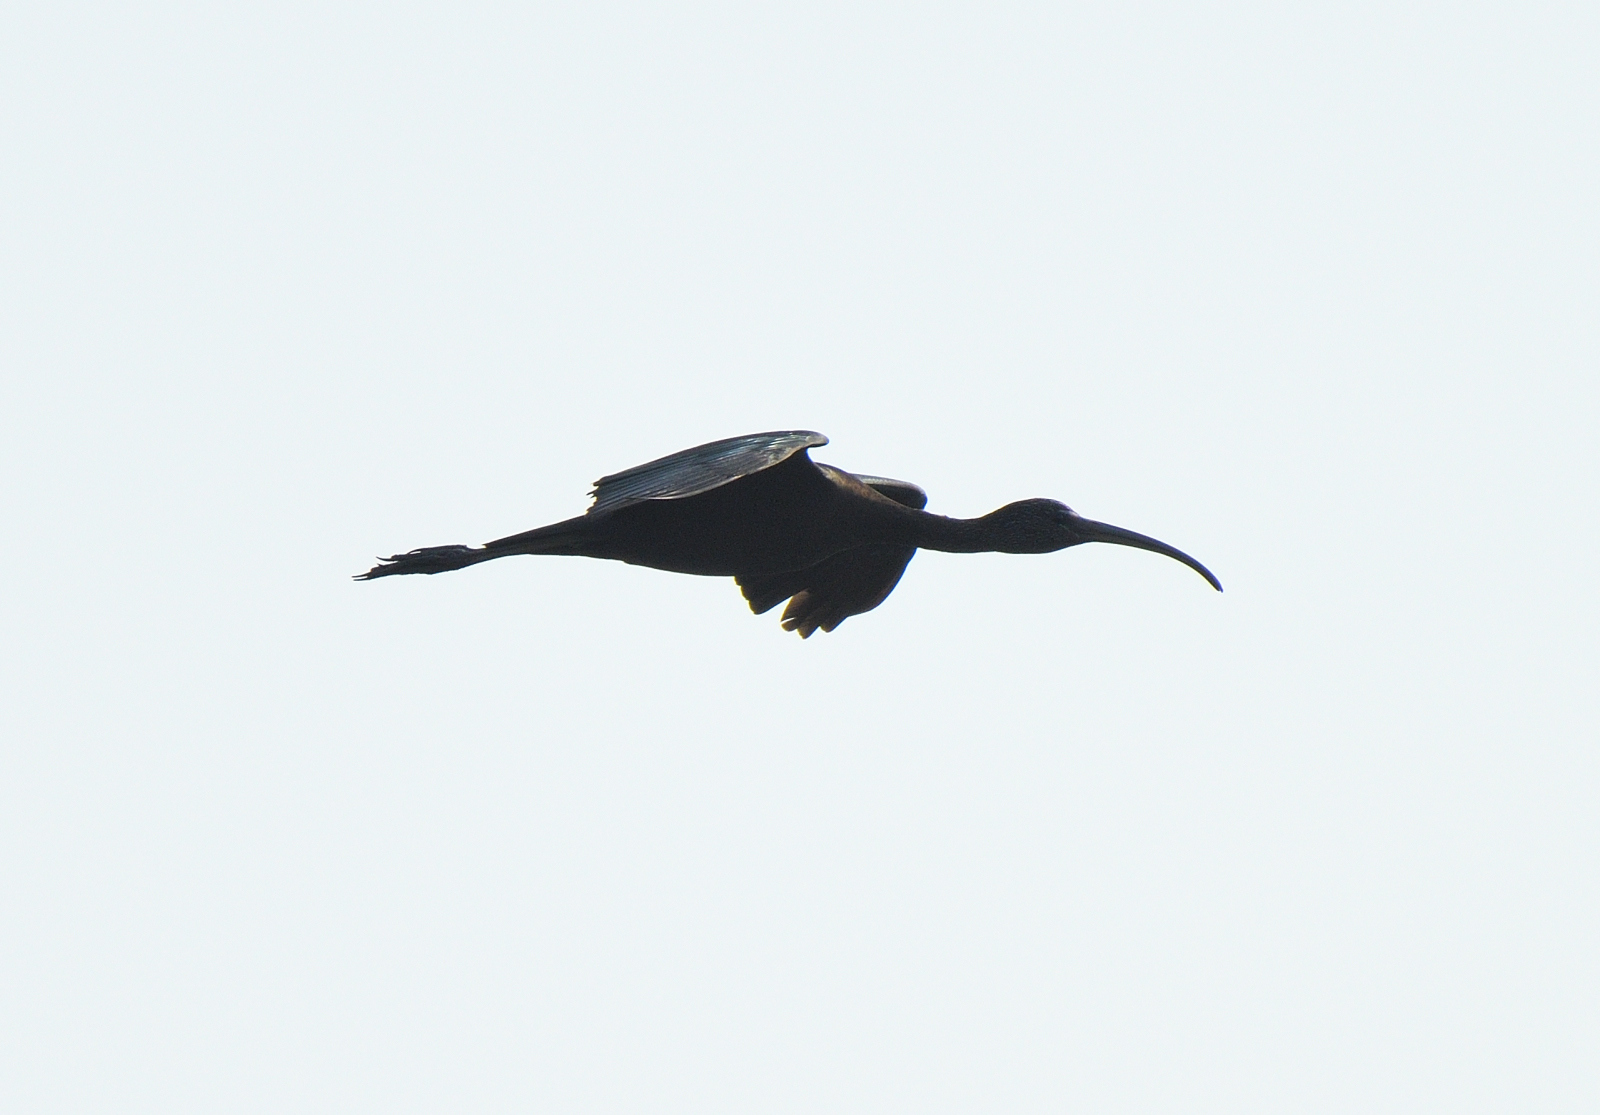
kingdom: Animalia
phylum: Chordata
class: Aves
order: Pelecaniformes
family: Threskiornithidae
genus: Plegadis
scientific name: Plegadis falcinellus
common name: Glossy ibis
